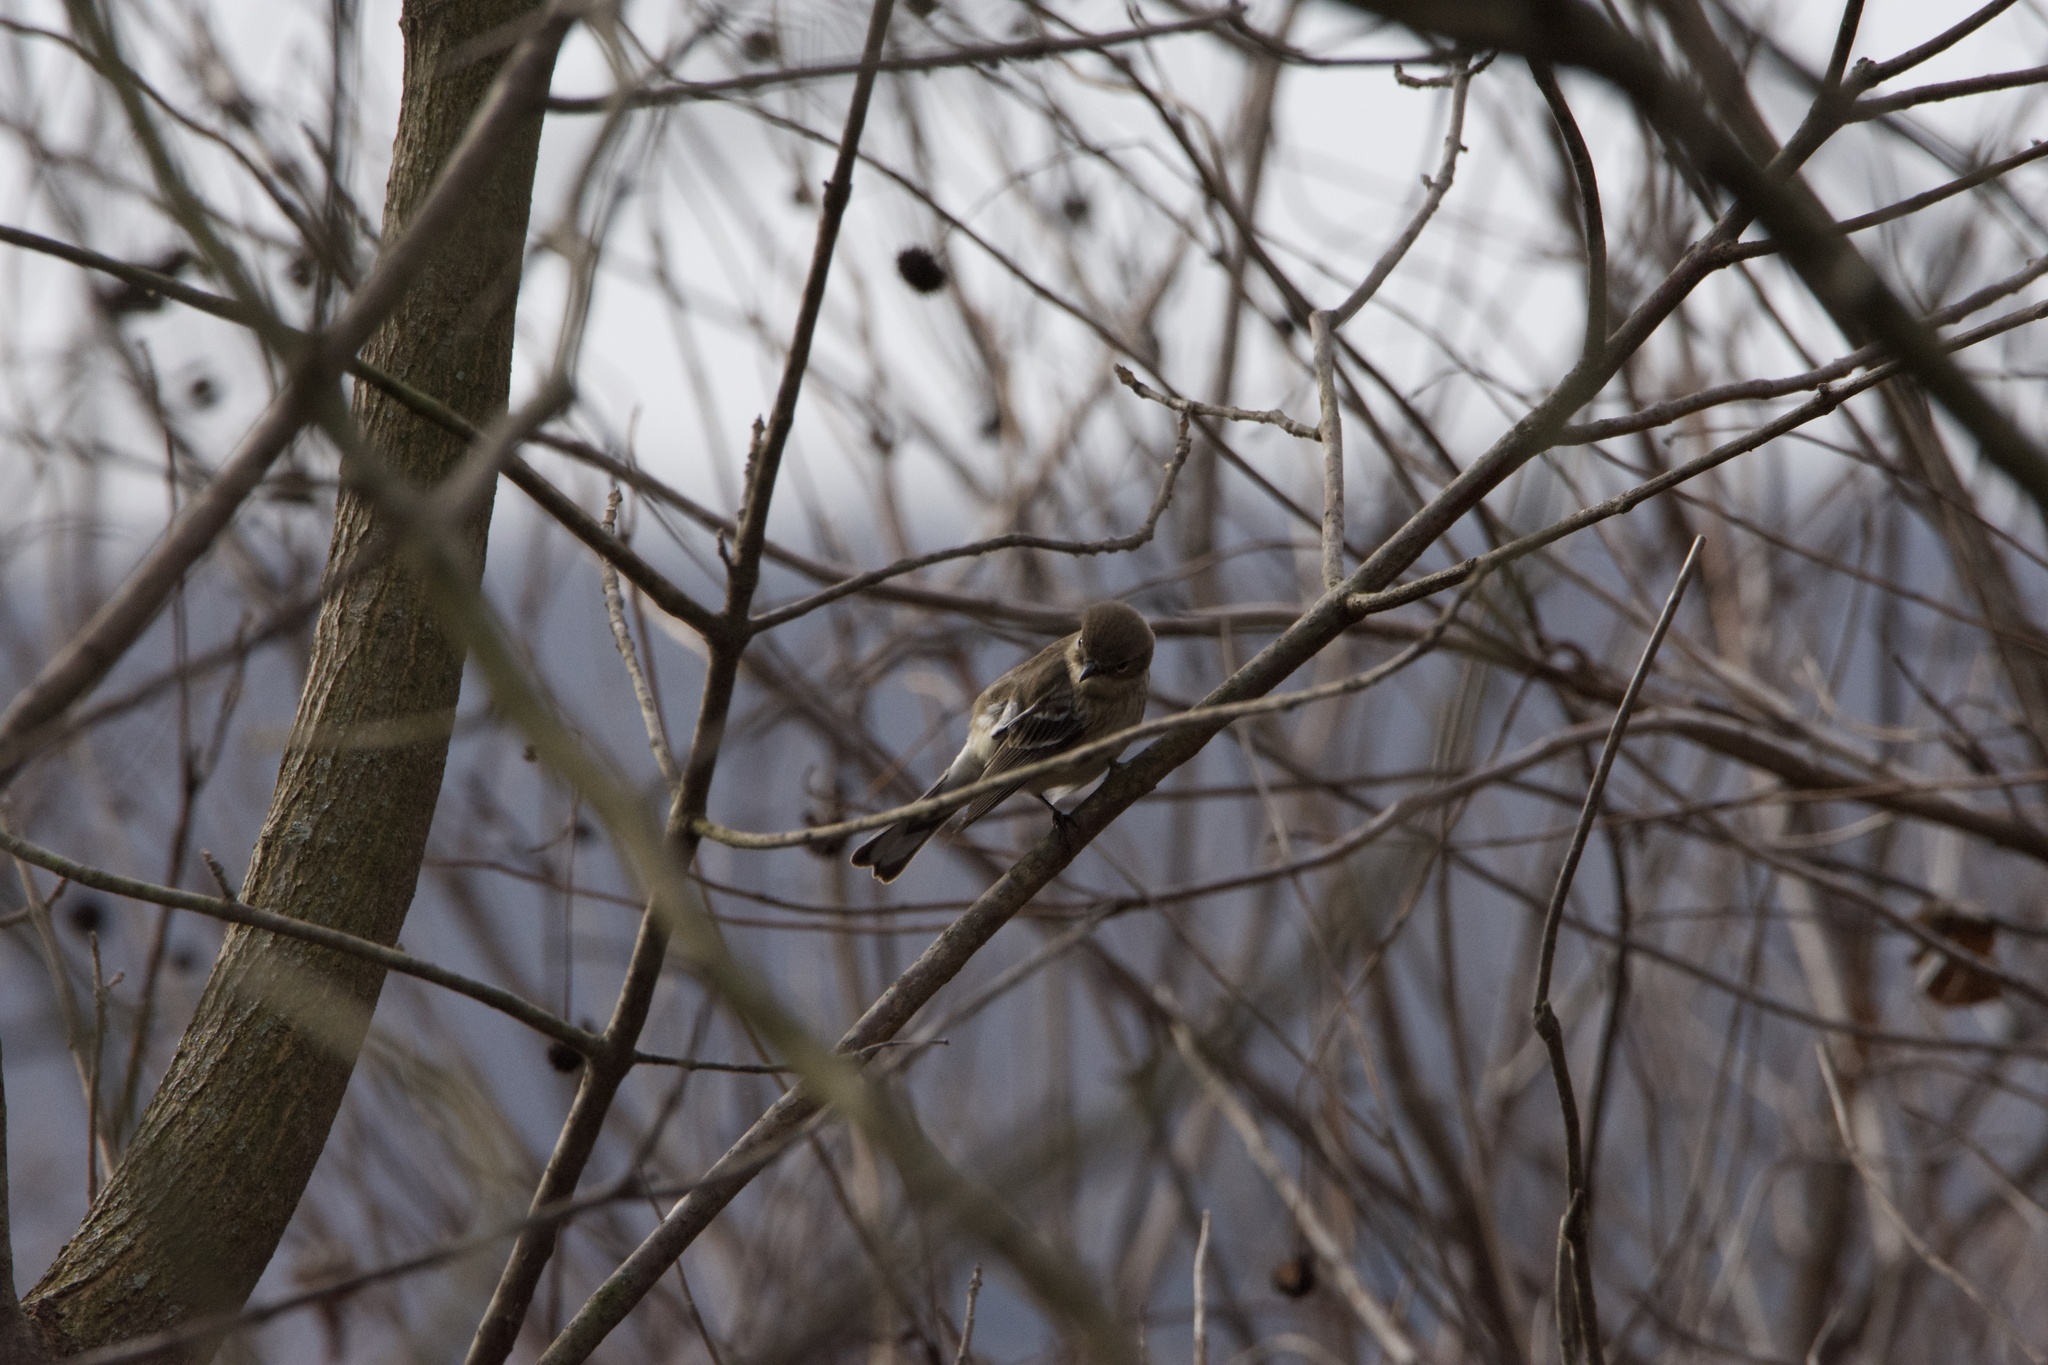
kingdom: Animalia
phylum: Chordata
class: Aves
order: Passeriformes
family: Parulidae
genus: Setophaga
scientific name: Setophaga coronata
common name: Myrtle warbler
